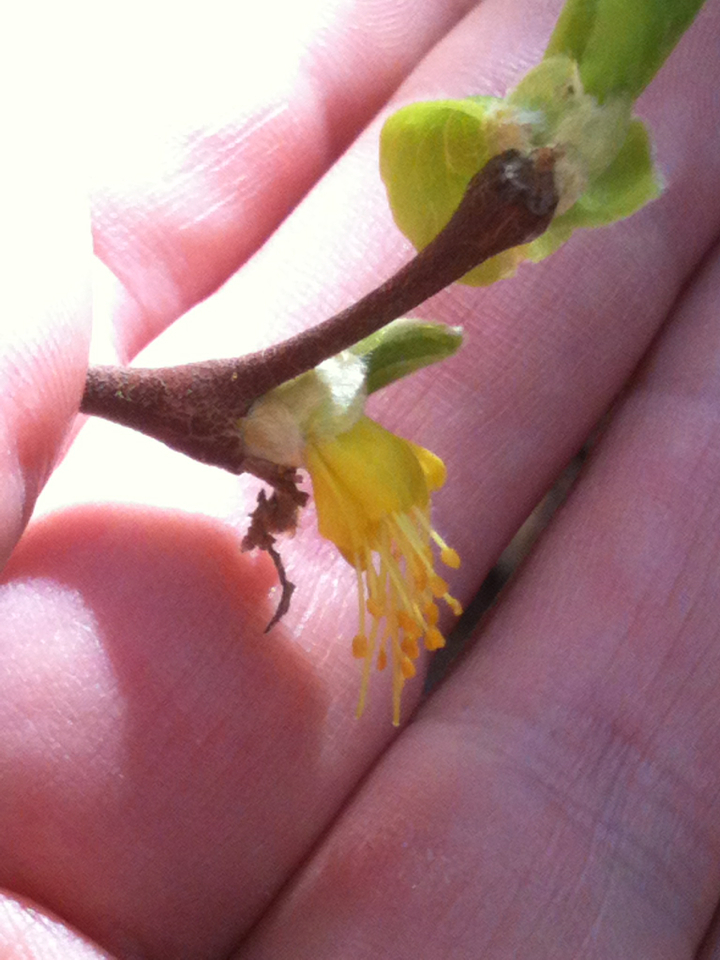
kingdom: Plantae
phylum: Tracheophyta
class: Magnoliopsida
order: Malvales
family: Thymelaeaceae
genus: Dirca
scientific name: Dirca occidentalis
